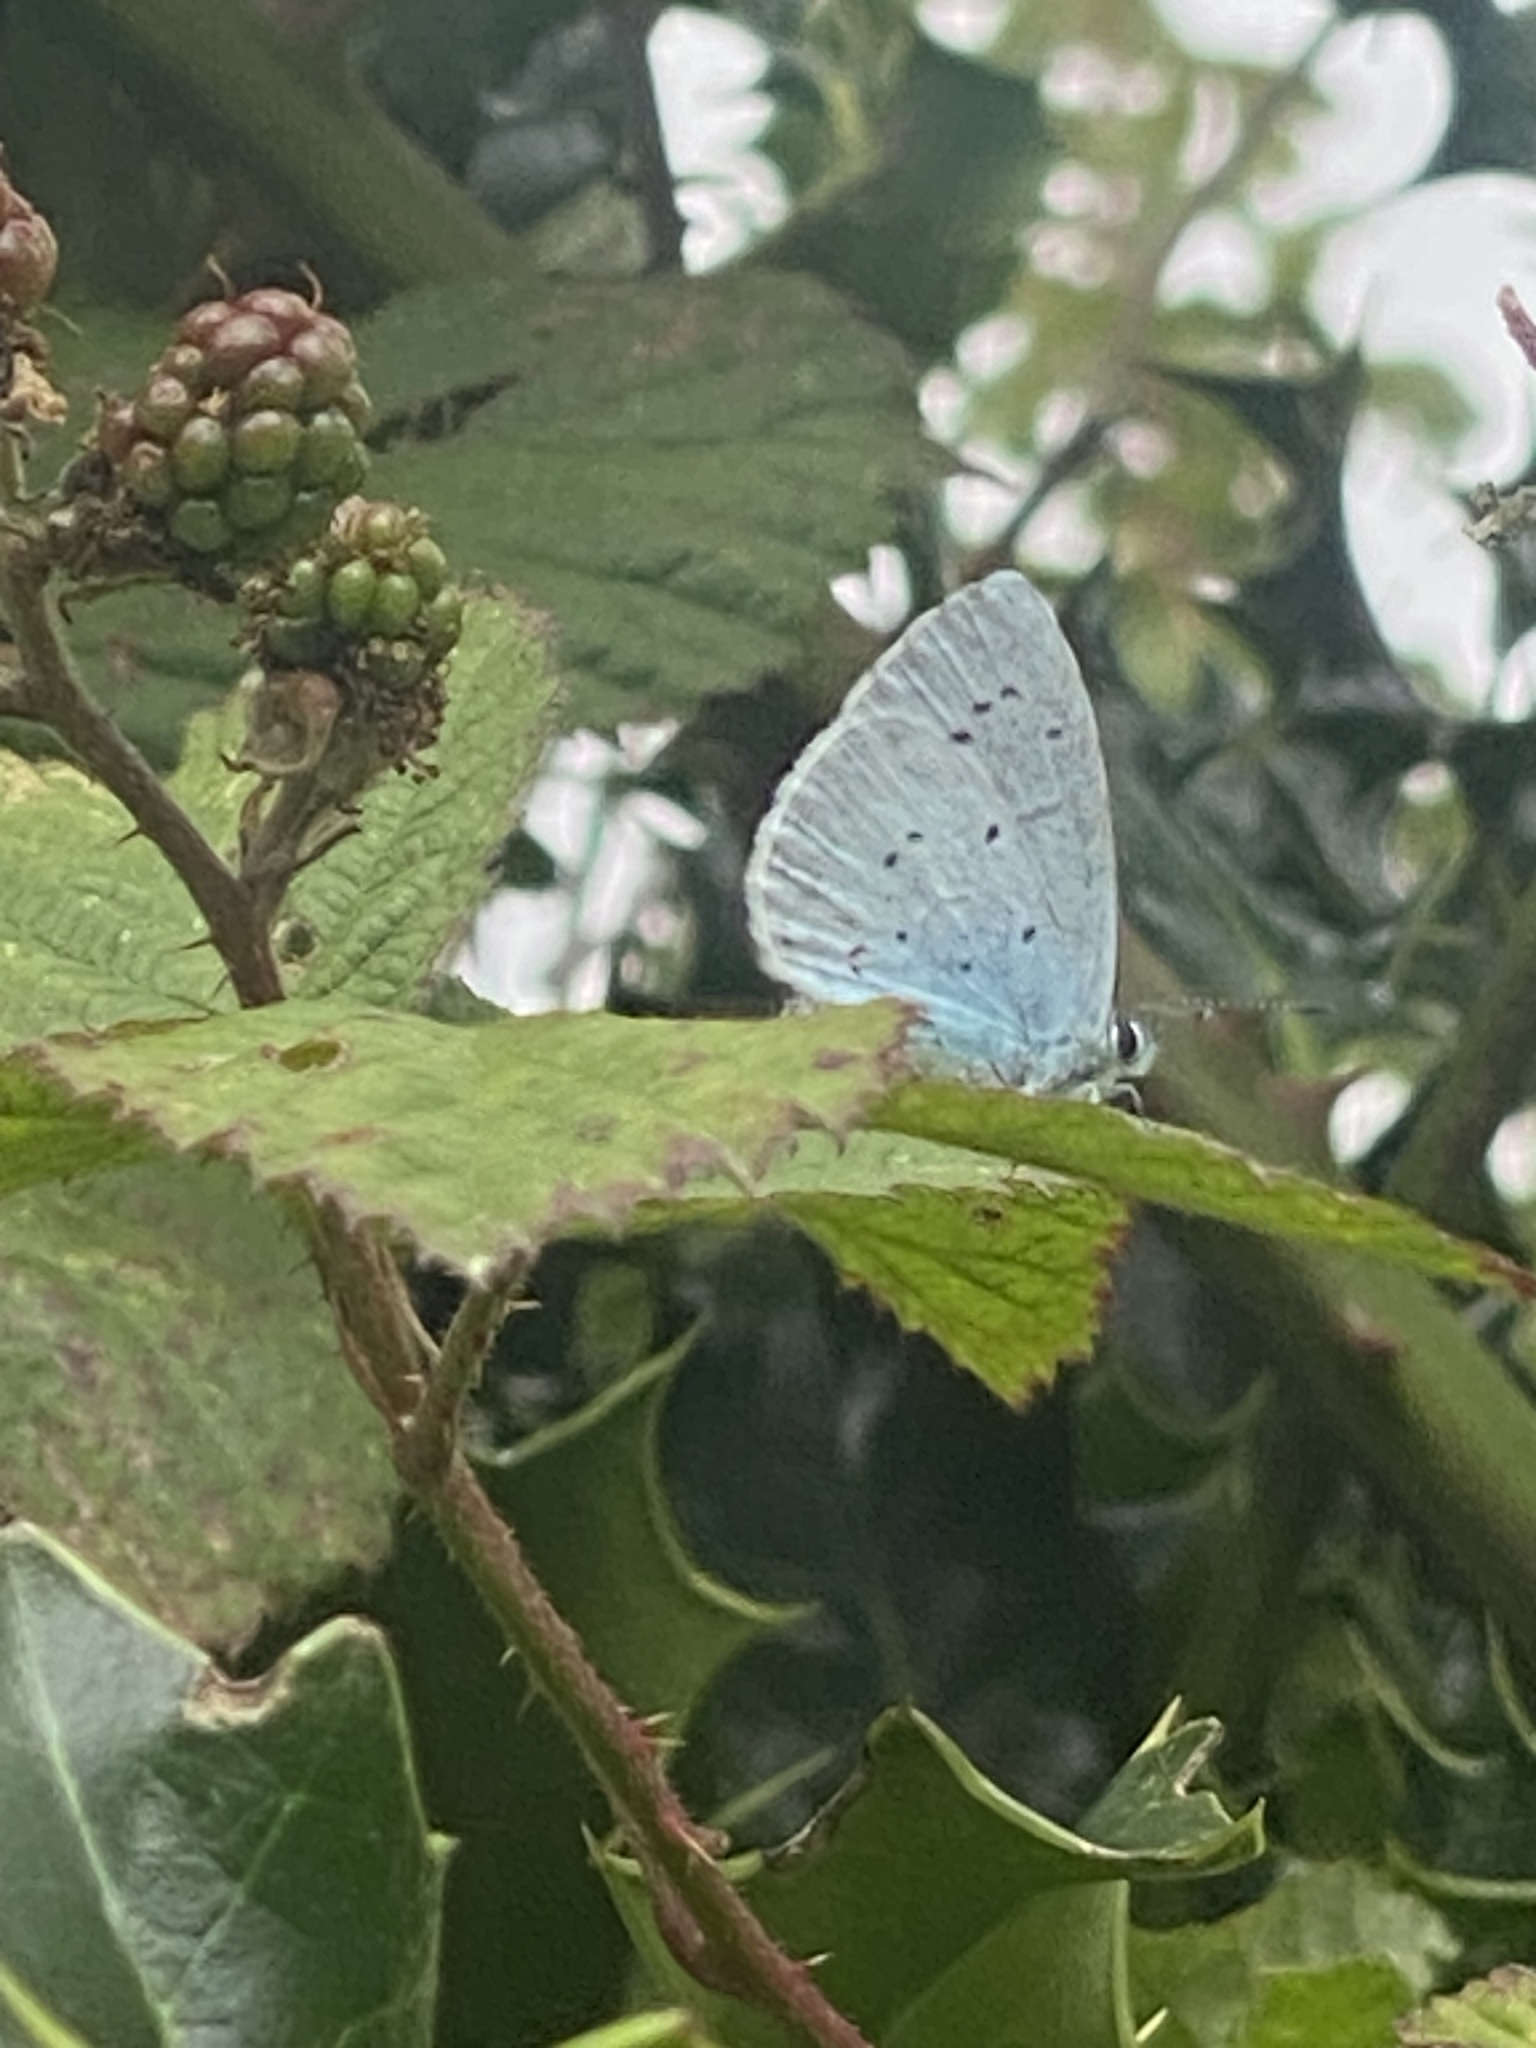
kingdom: Animalia
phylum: Arthropoda
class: Insecta
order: Lepidoptera
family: Lycaenidae
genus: Celastrina
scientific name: Celastrina argiolus
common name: Holly blue
